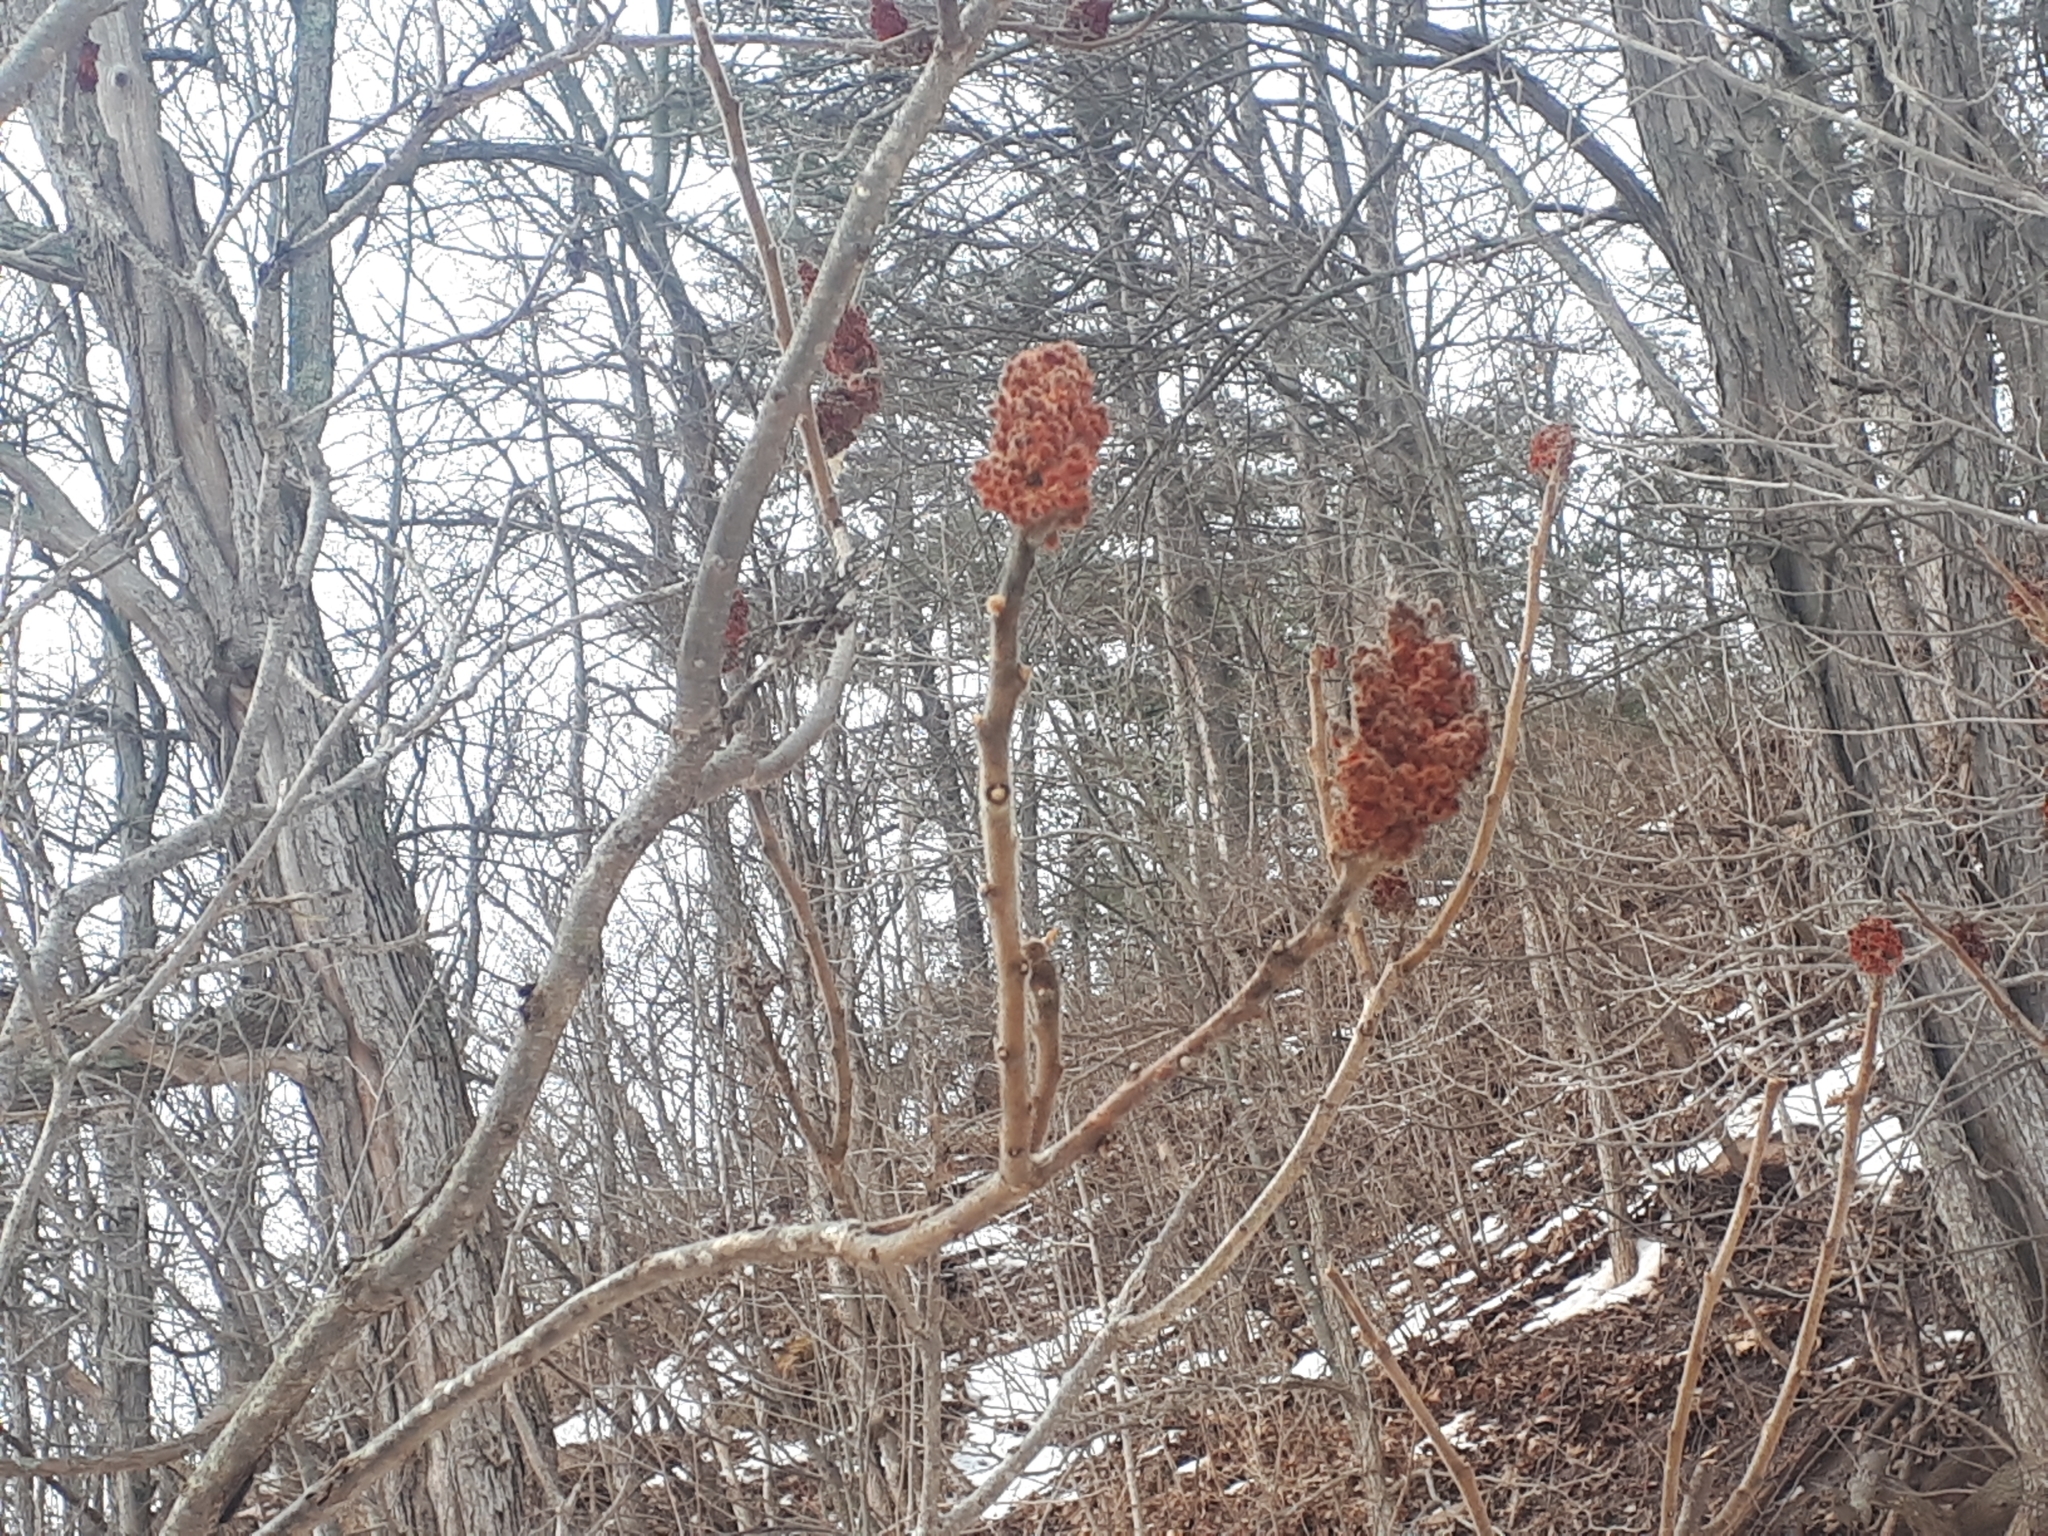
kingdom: Plantae
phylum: Tracheophyta
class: Magnoliopsida
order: Sapindales
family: Anacardiaceae
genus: Rhus
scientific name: Rhus typhina
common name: Staghorn sumac
